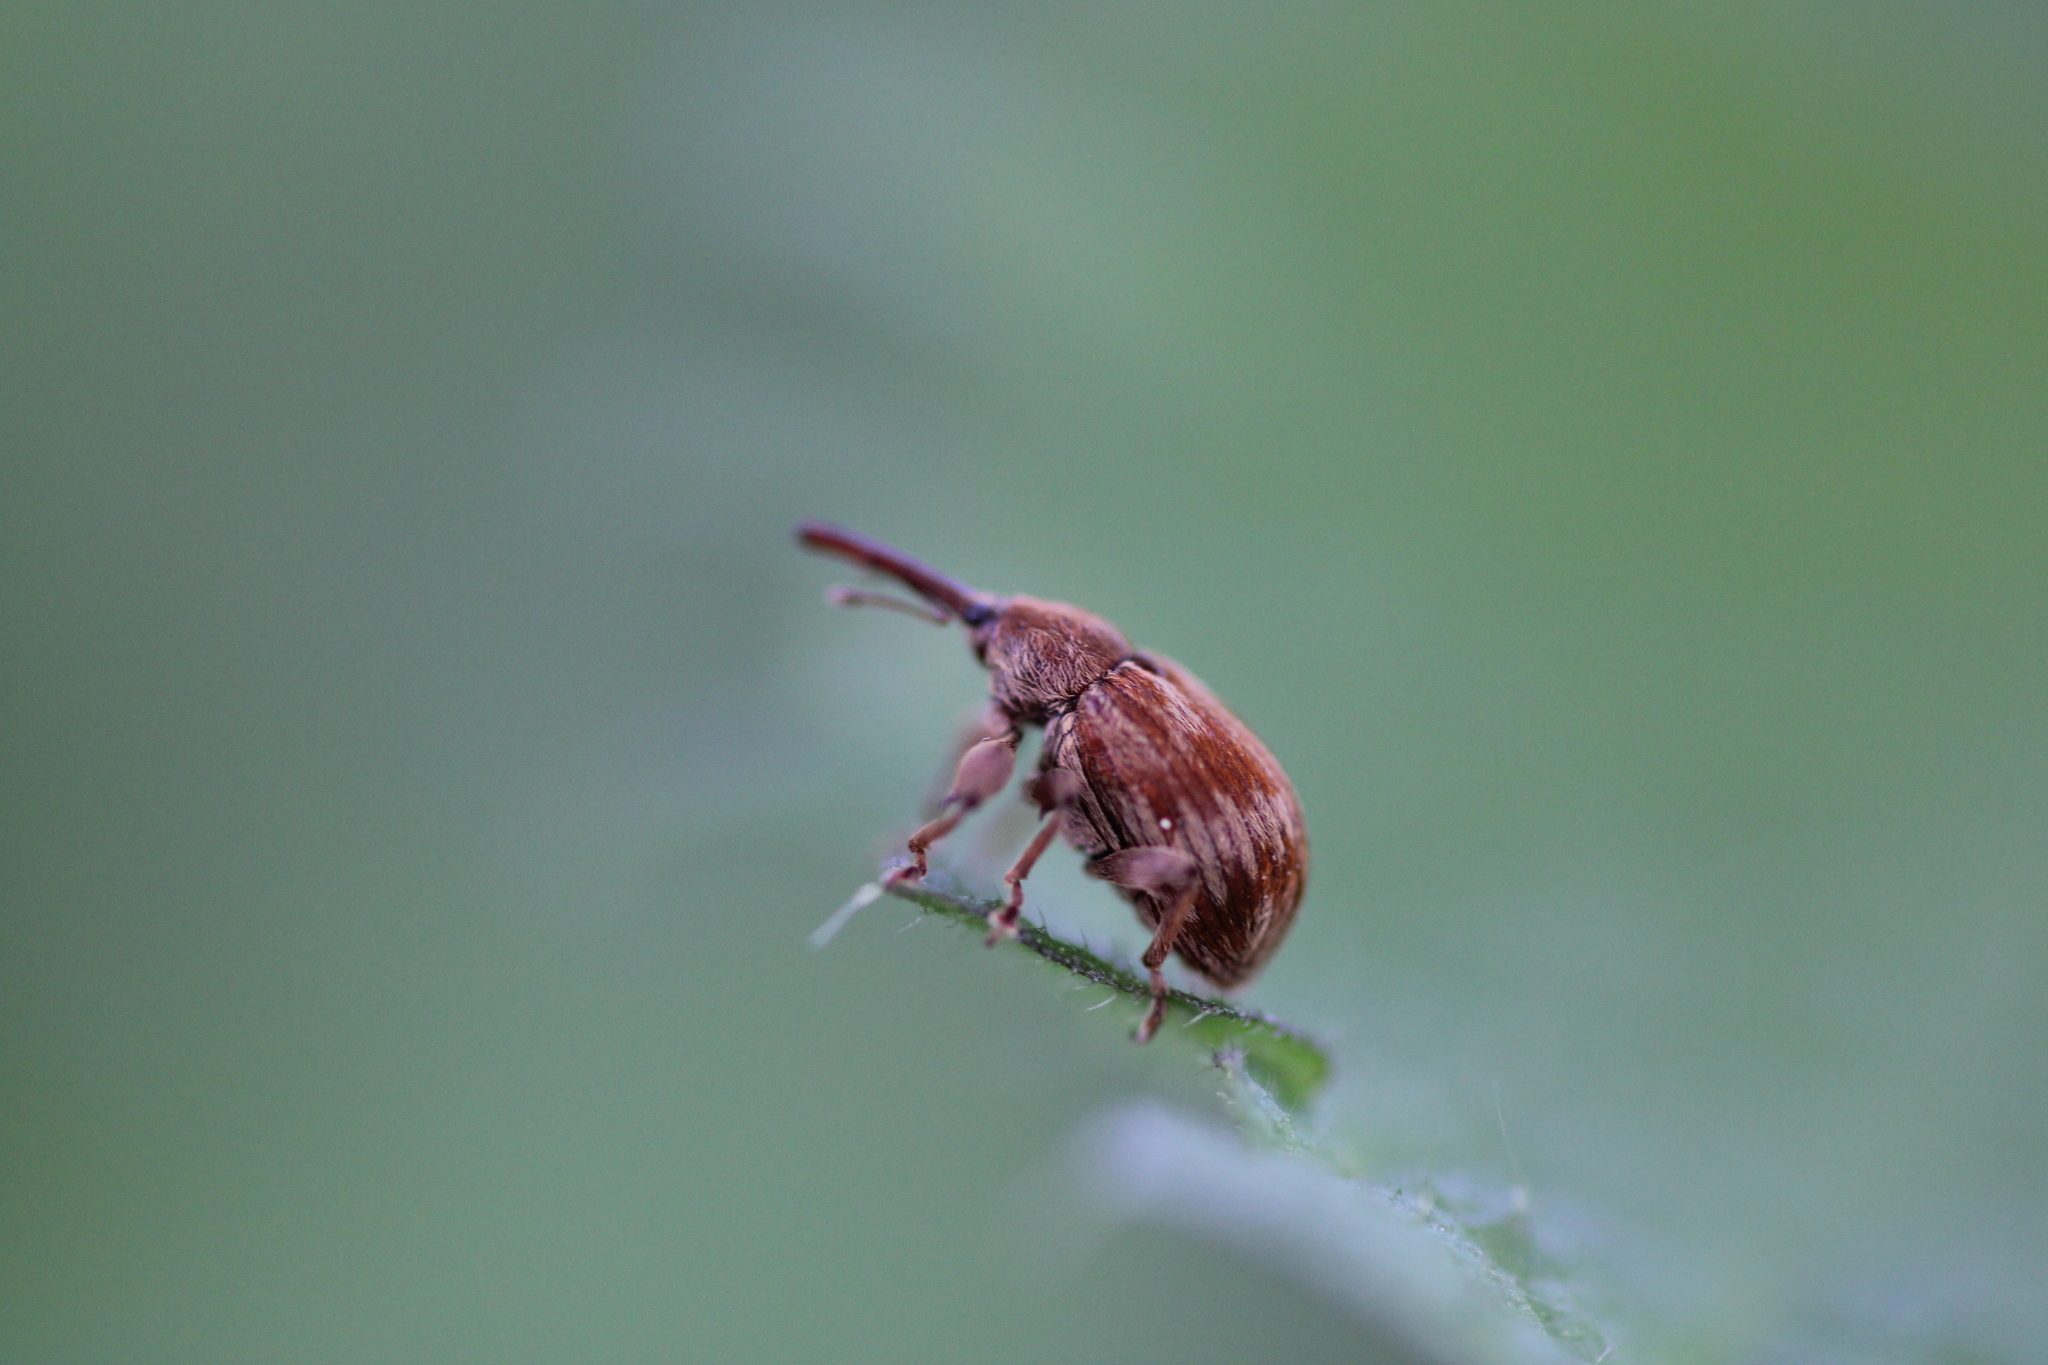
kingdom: Animalia
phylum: Arthropoda
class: Insecta
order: Coleoptera
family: Curculionidae
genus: Anthonomus
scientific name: Anthonomus rectirostris
